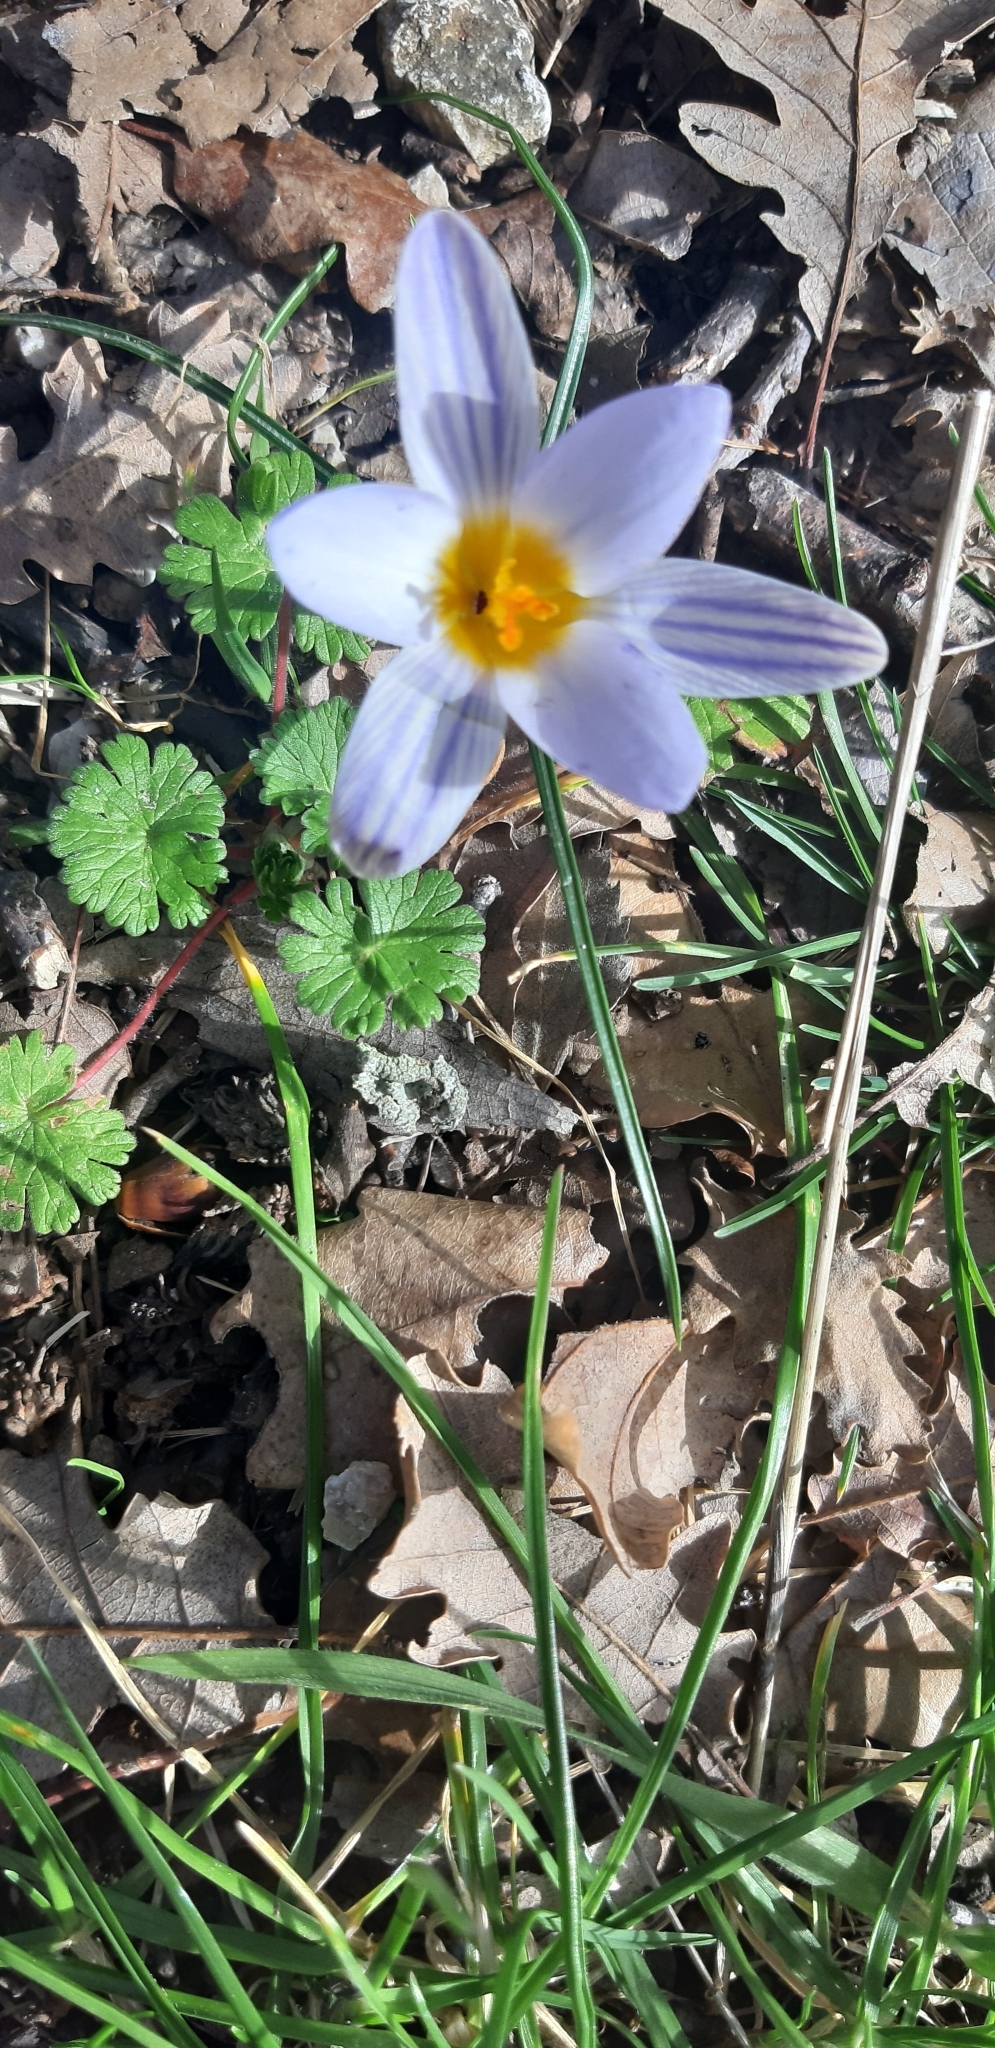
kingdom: Plantae
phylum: Tracheophyta
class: Liliopsida
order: Asparagales
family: Iridaceae
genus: Crocus
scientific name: Crocus biflorus
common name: Silvery crocus
